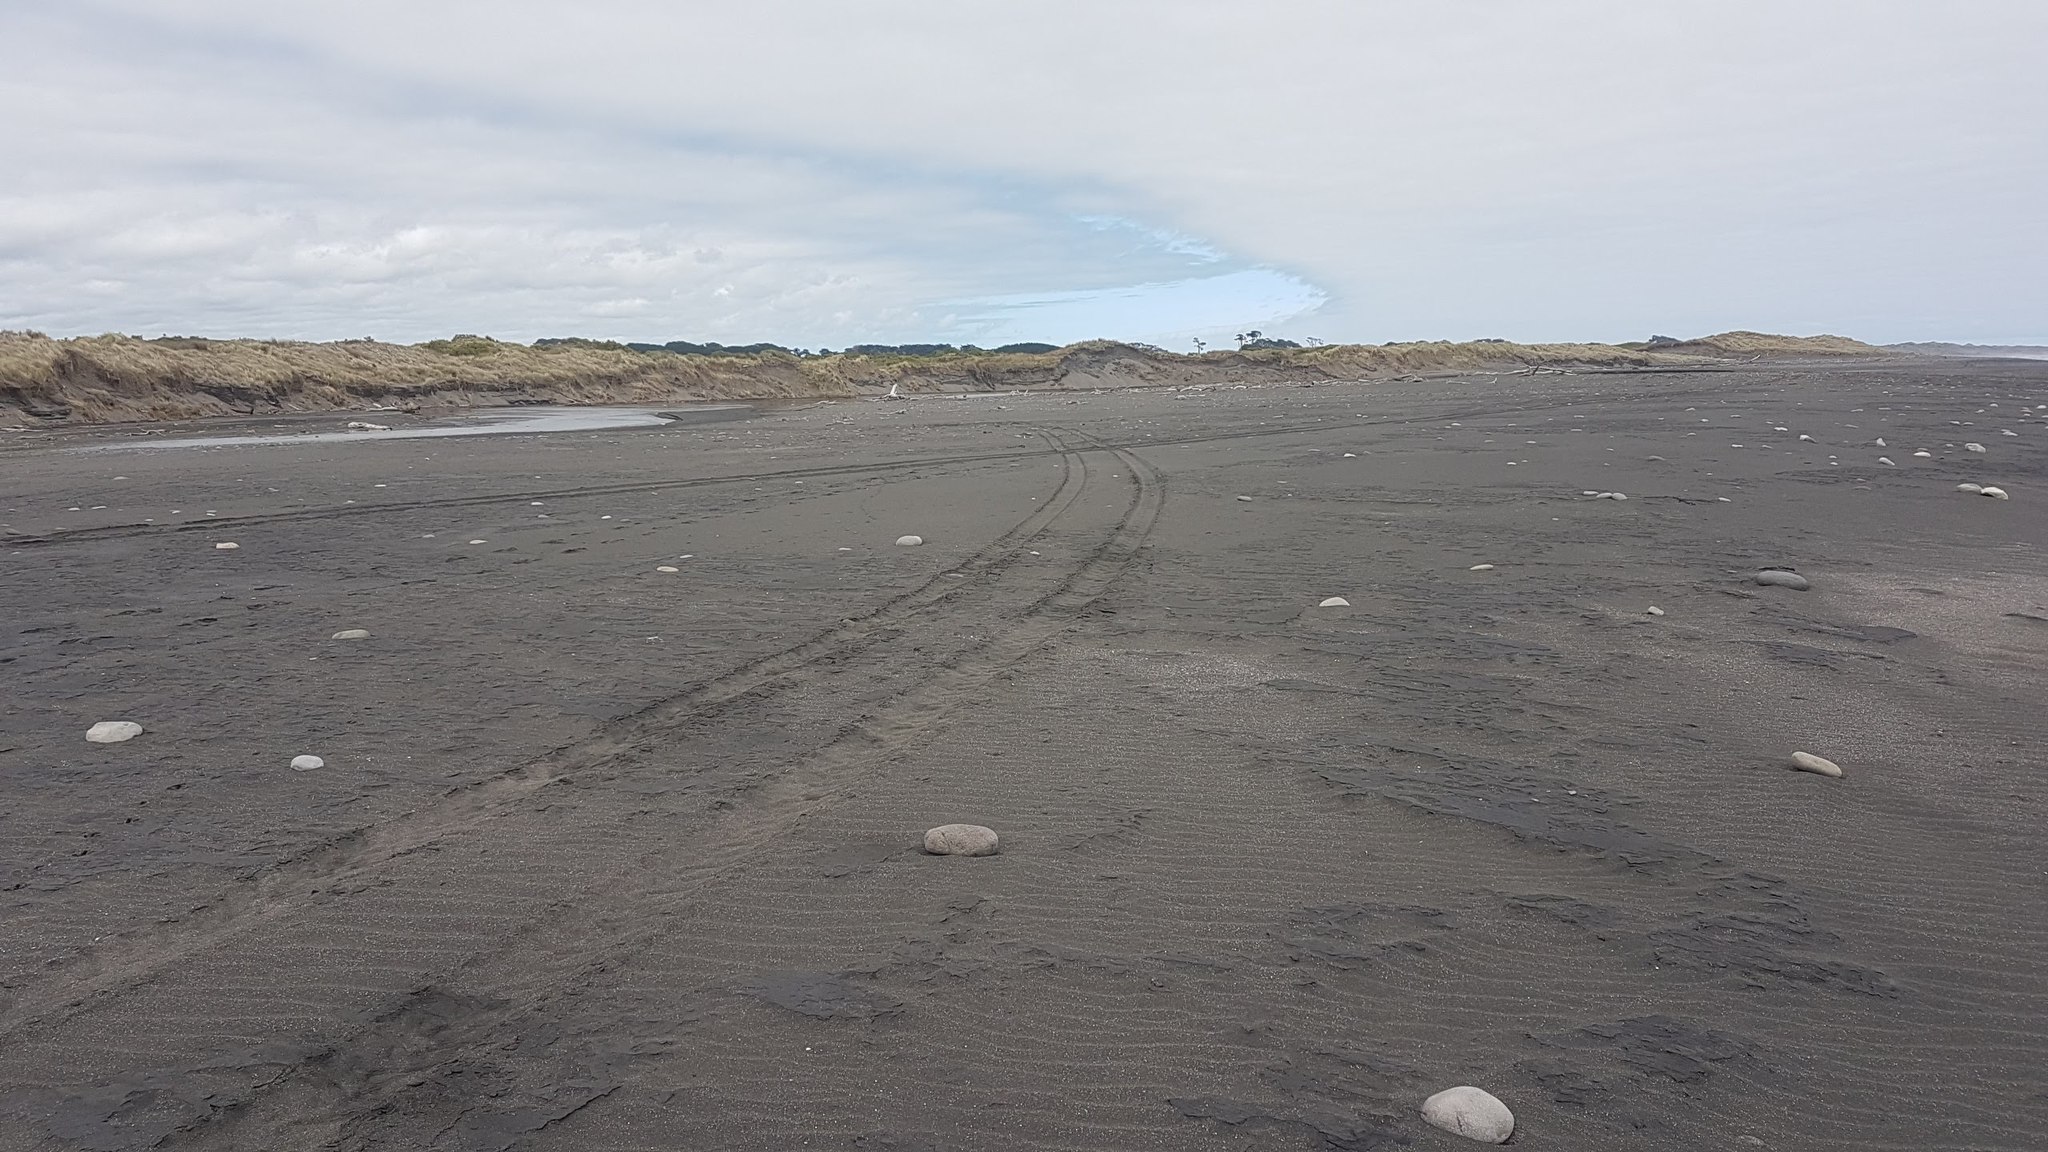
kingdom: Animalia
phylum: Chordata
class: Aves
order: Charadriiformes
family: Charadriidae
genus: Anarhynchus
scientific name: Anarhynchus
